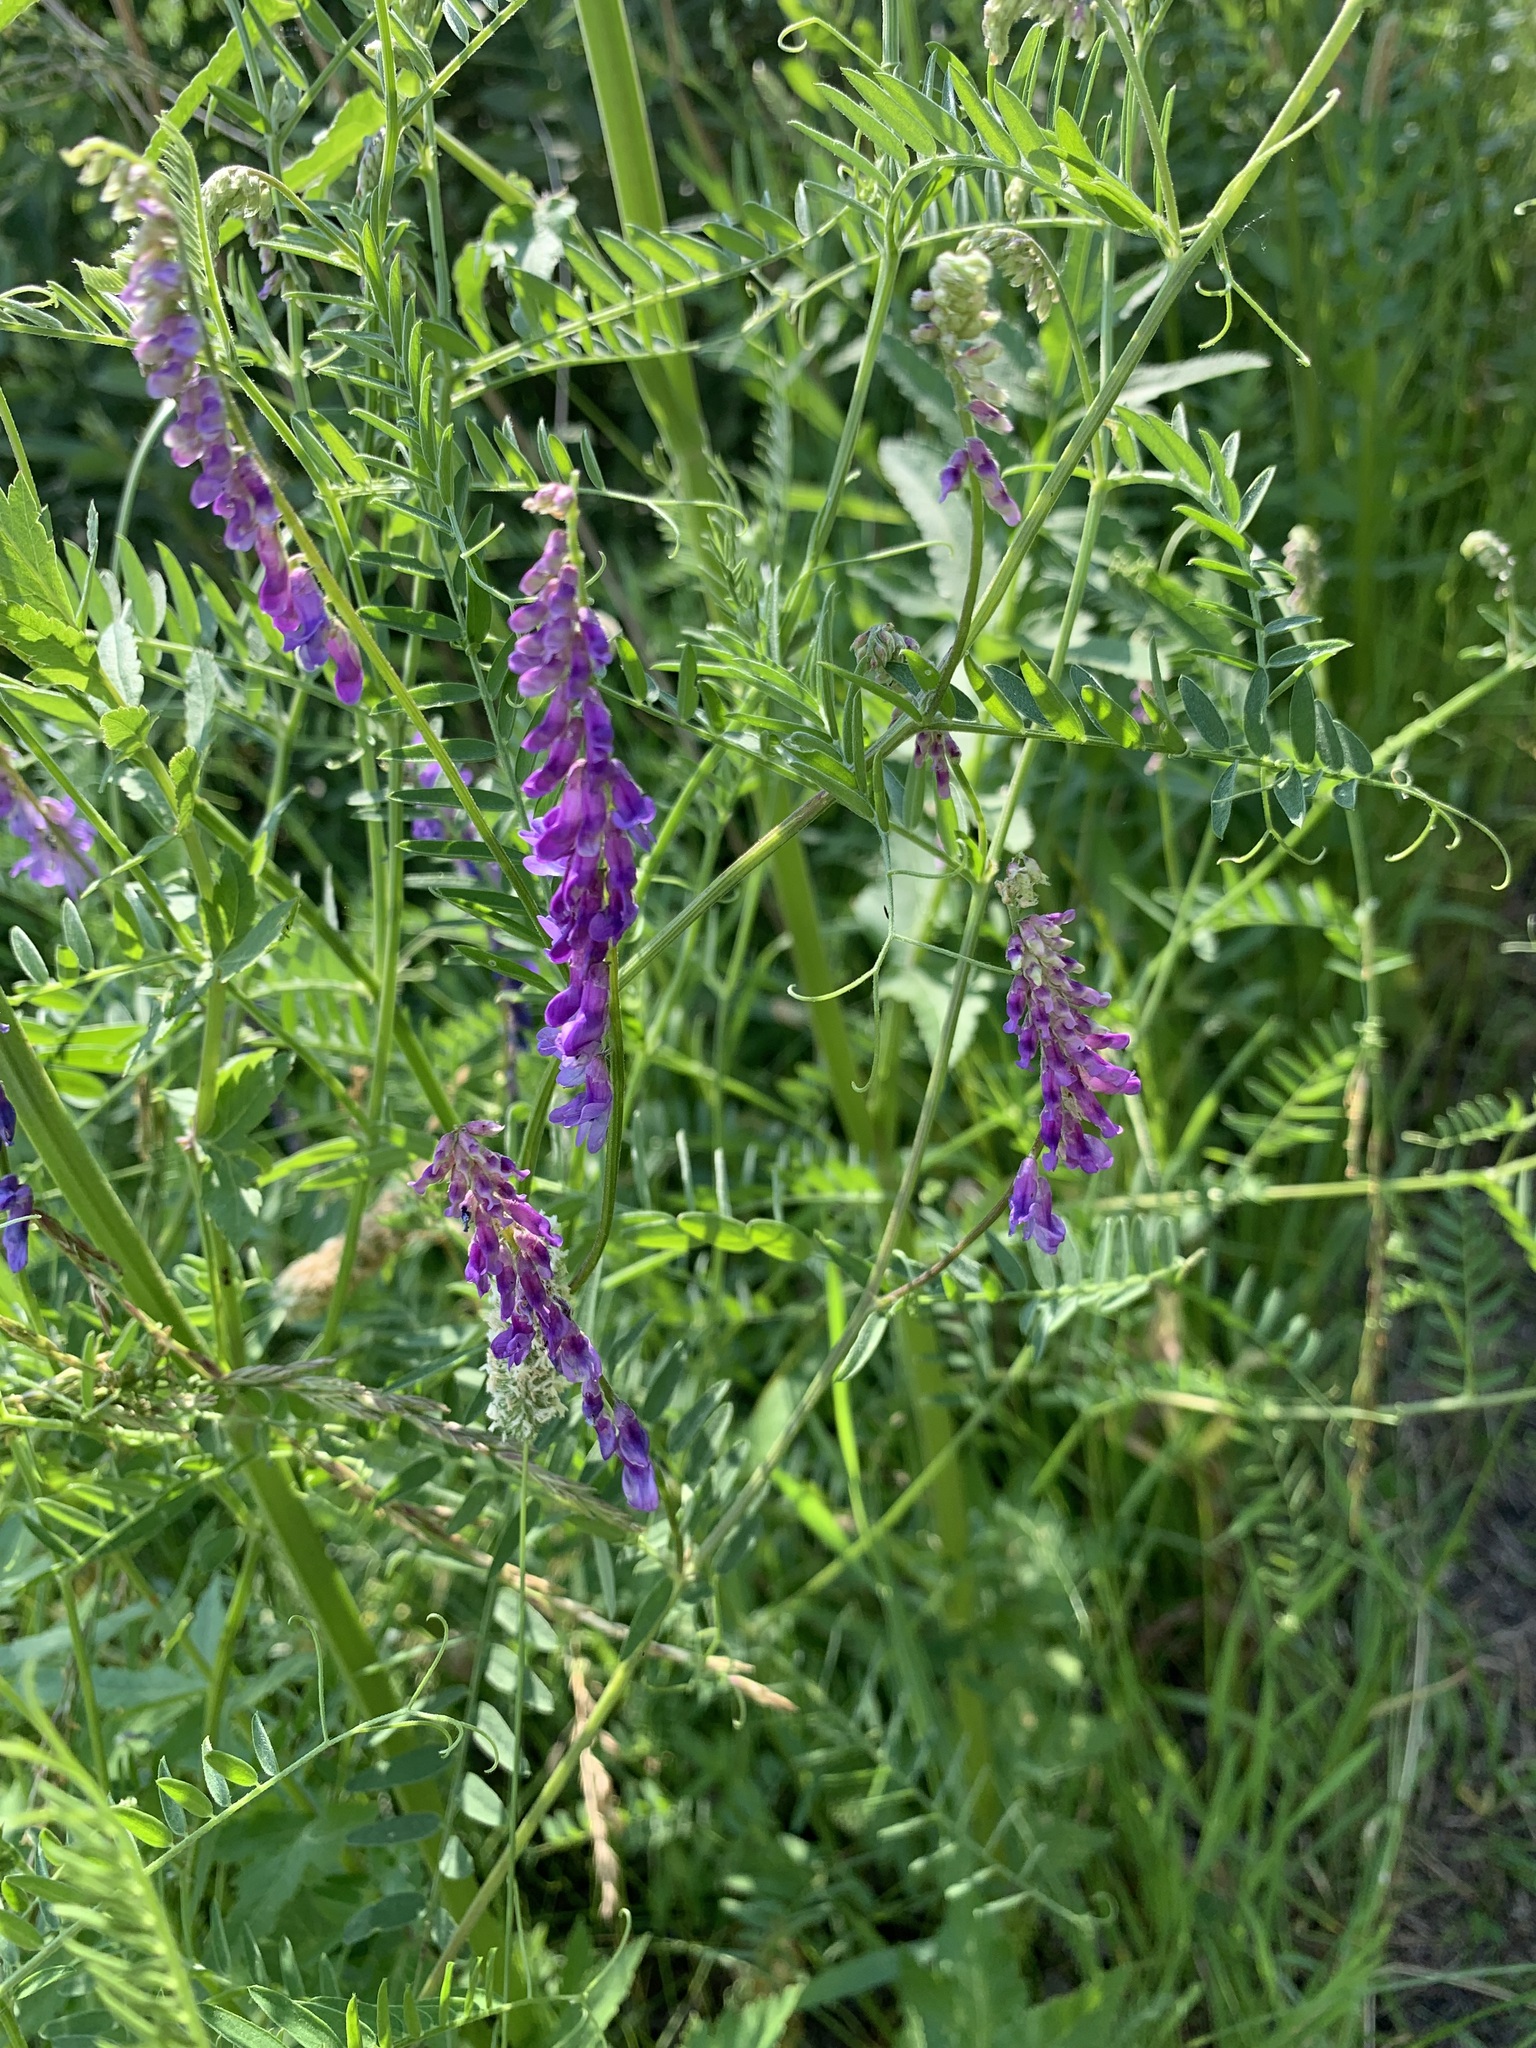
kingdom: Plantae
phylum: Tracheophyta
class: Magnoliopsida
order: Fabales
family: Fabaceae
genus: Vicia
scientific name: Vicia cracca
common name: Bird vetch
